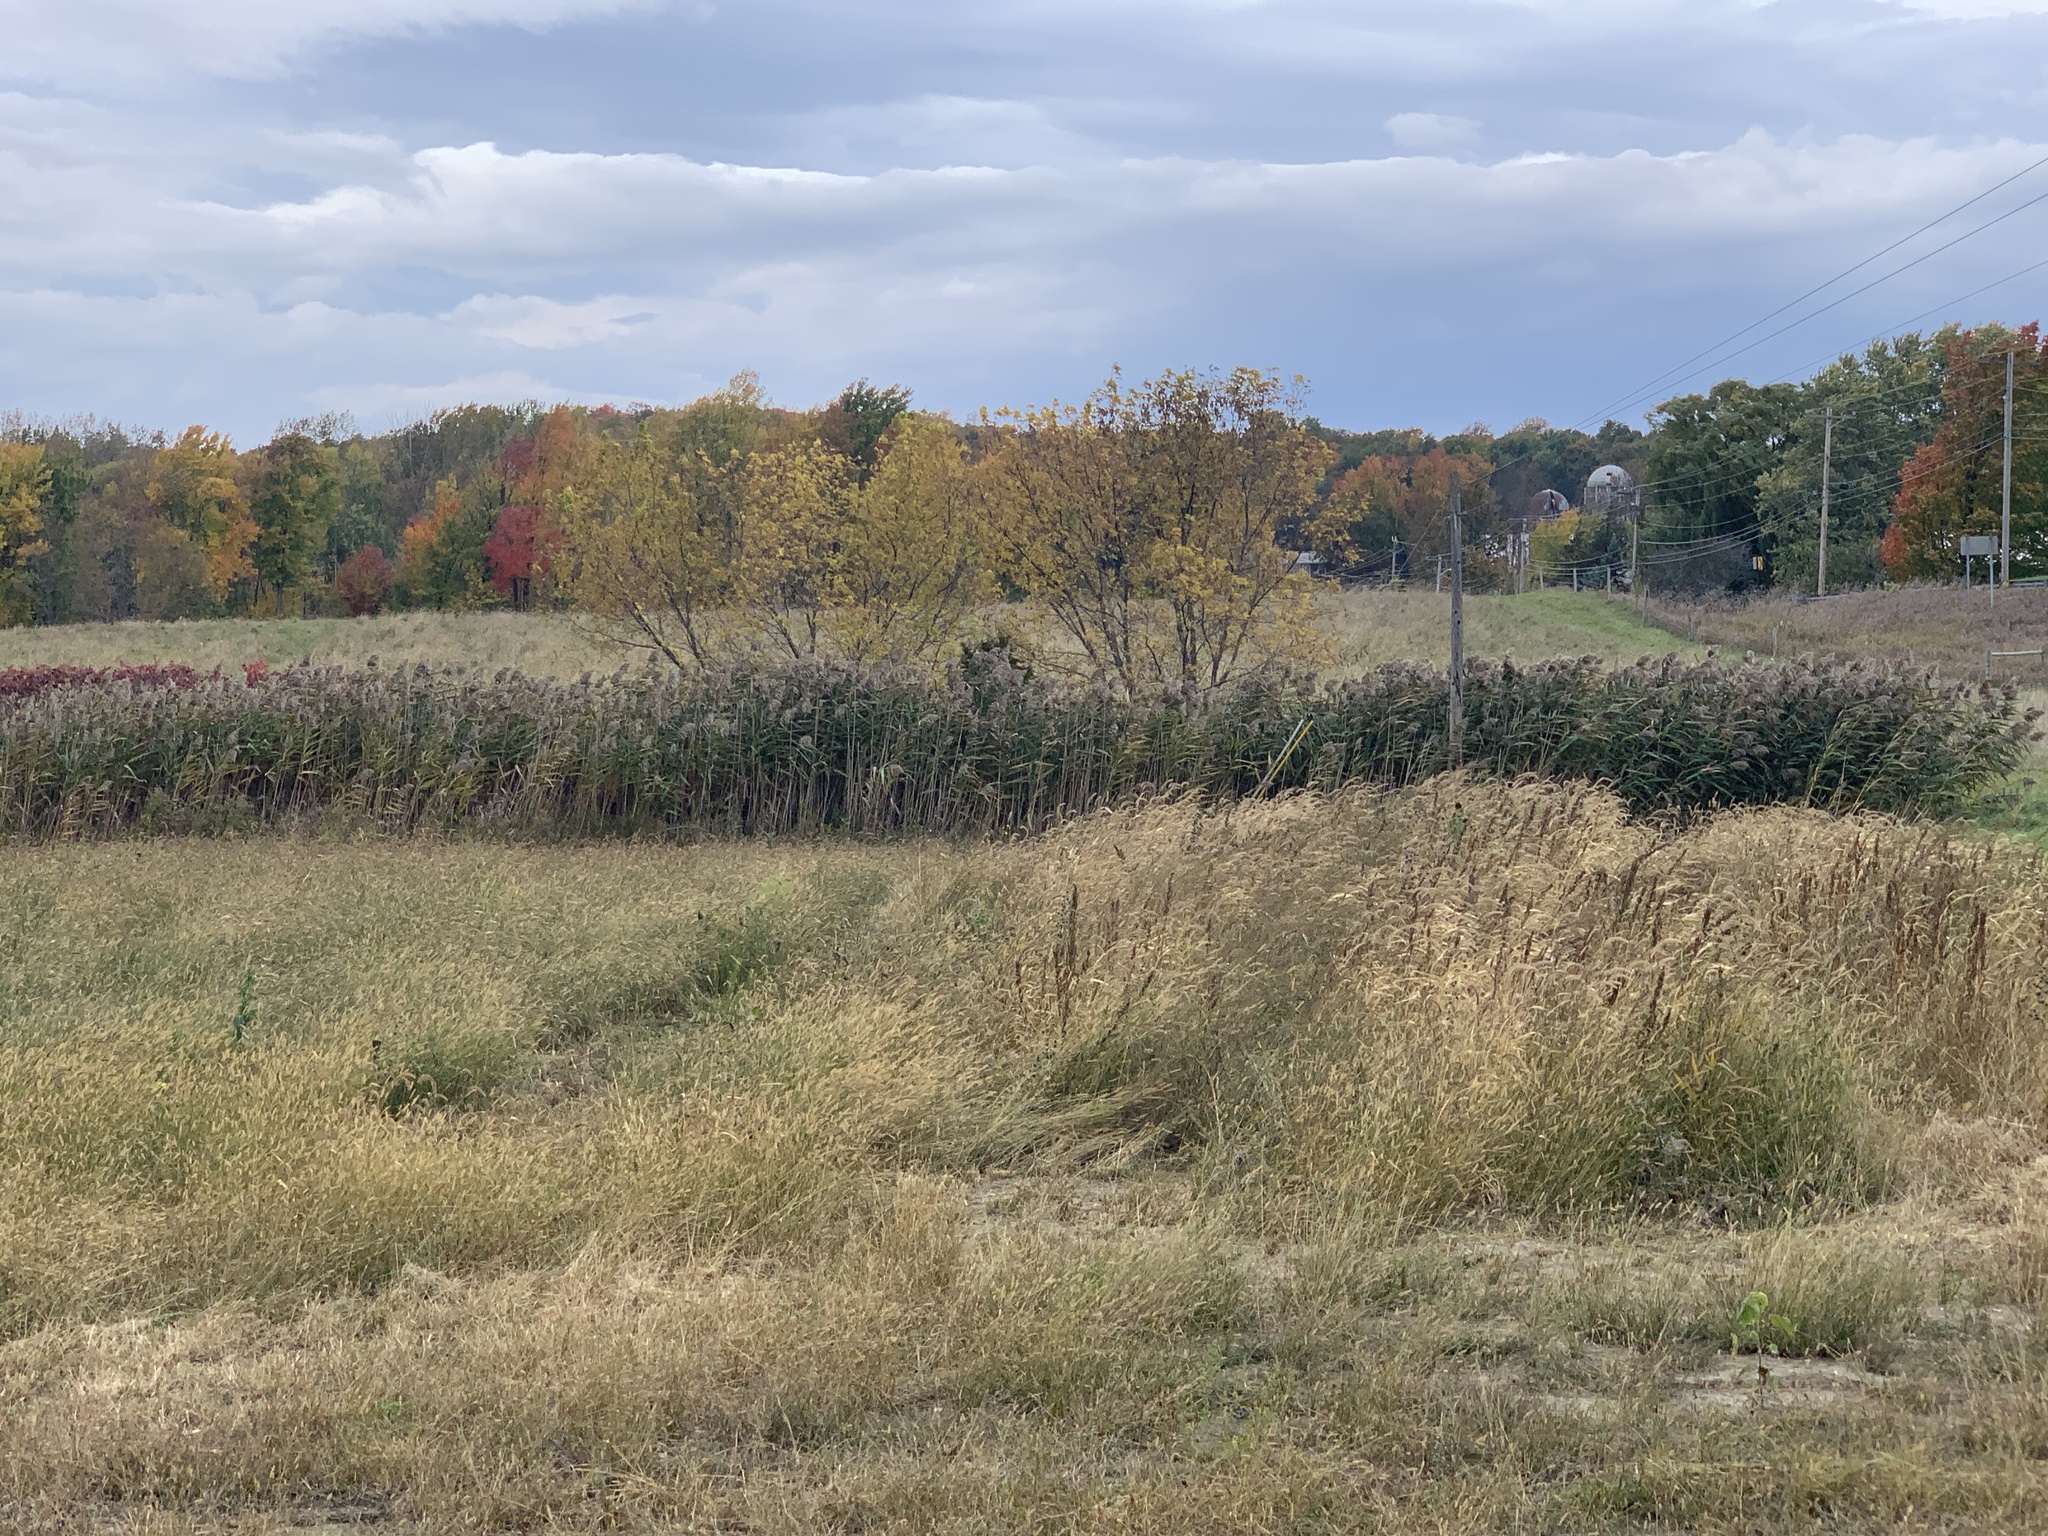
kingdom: Plantae
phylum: Tracheophyta
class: Liliopsida
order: Poales
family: Poaceae
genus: Phragmites
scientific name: Phragmites australis
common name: Common reed
